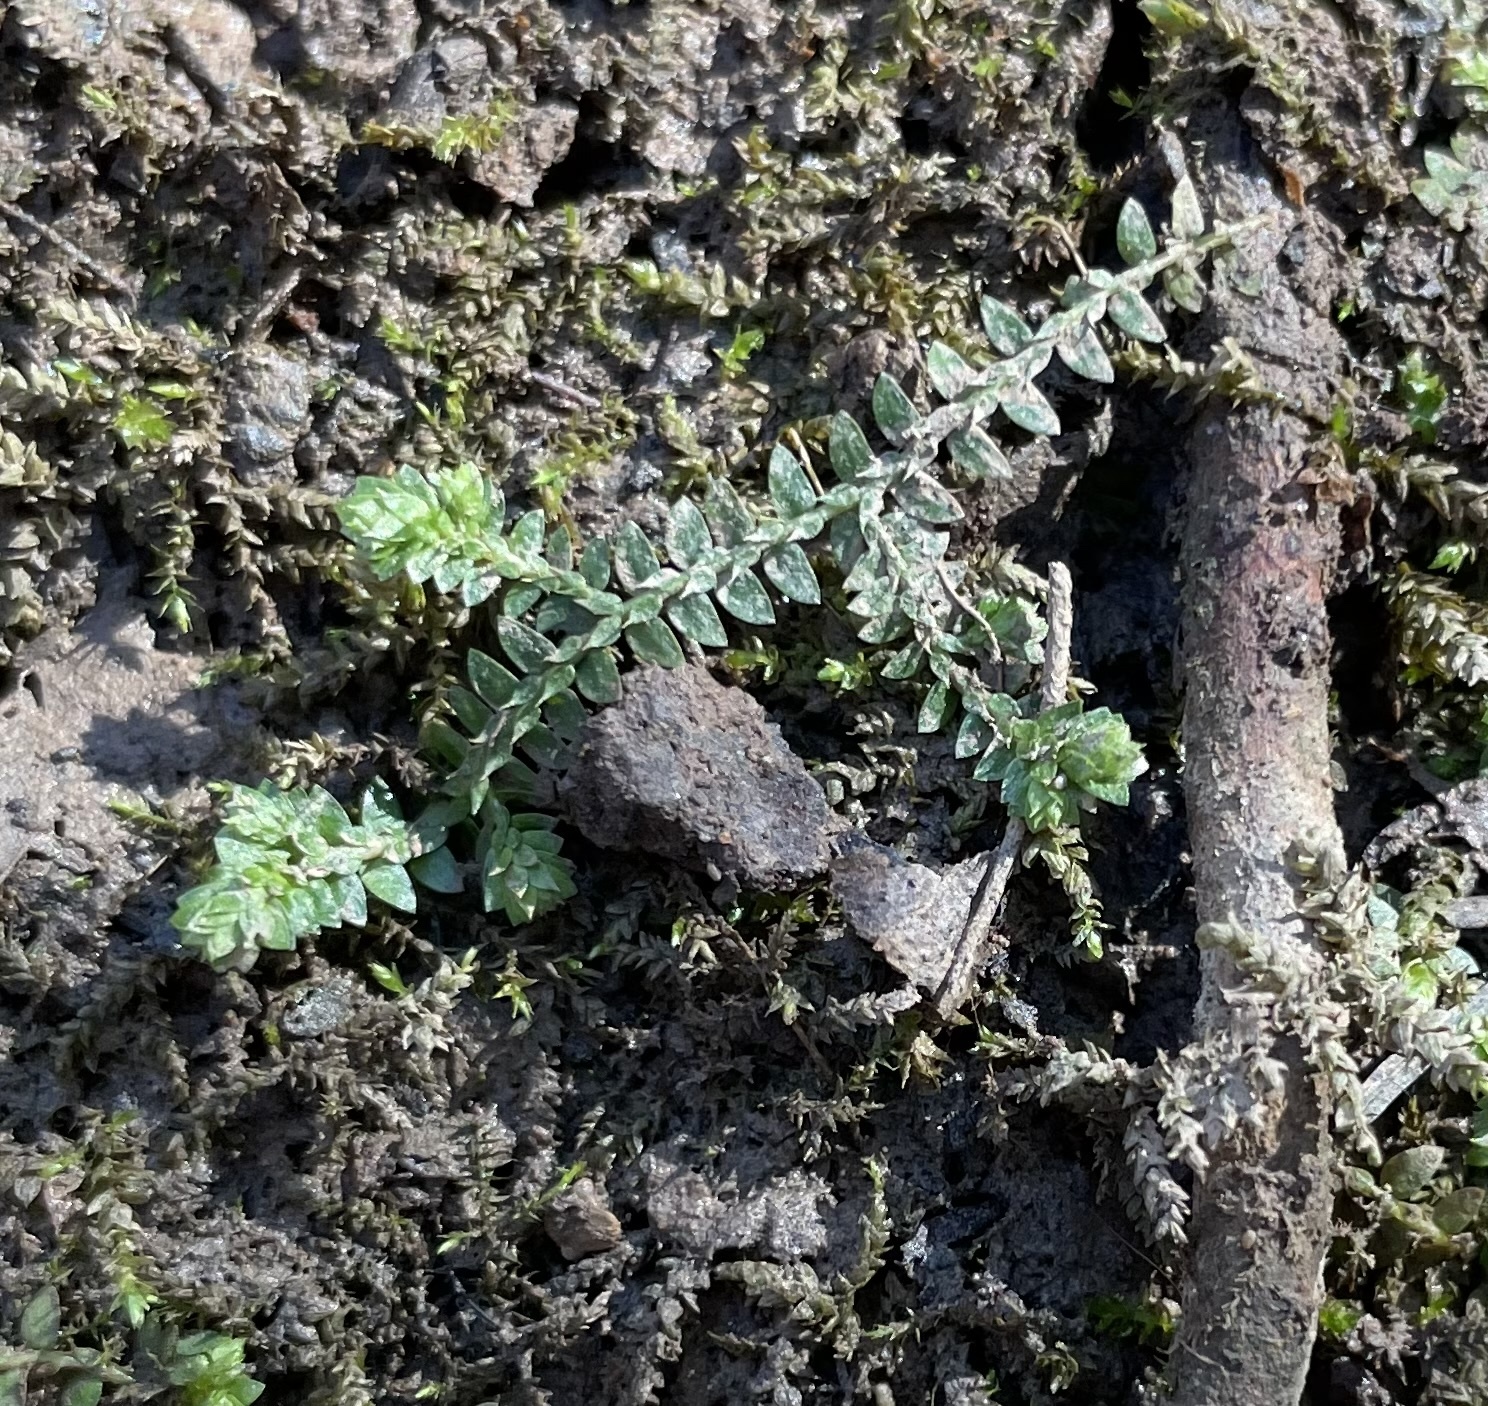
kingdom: Plantae
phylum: Tracheophyta
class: Lycopodiopsida
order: Selaginellales
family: Selaginellaceae
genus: Selaginella
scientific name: Selaginella apoda
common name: Creeping spikemoss
